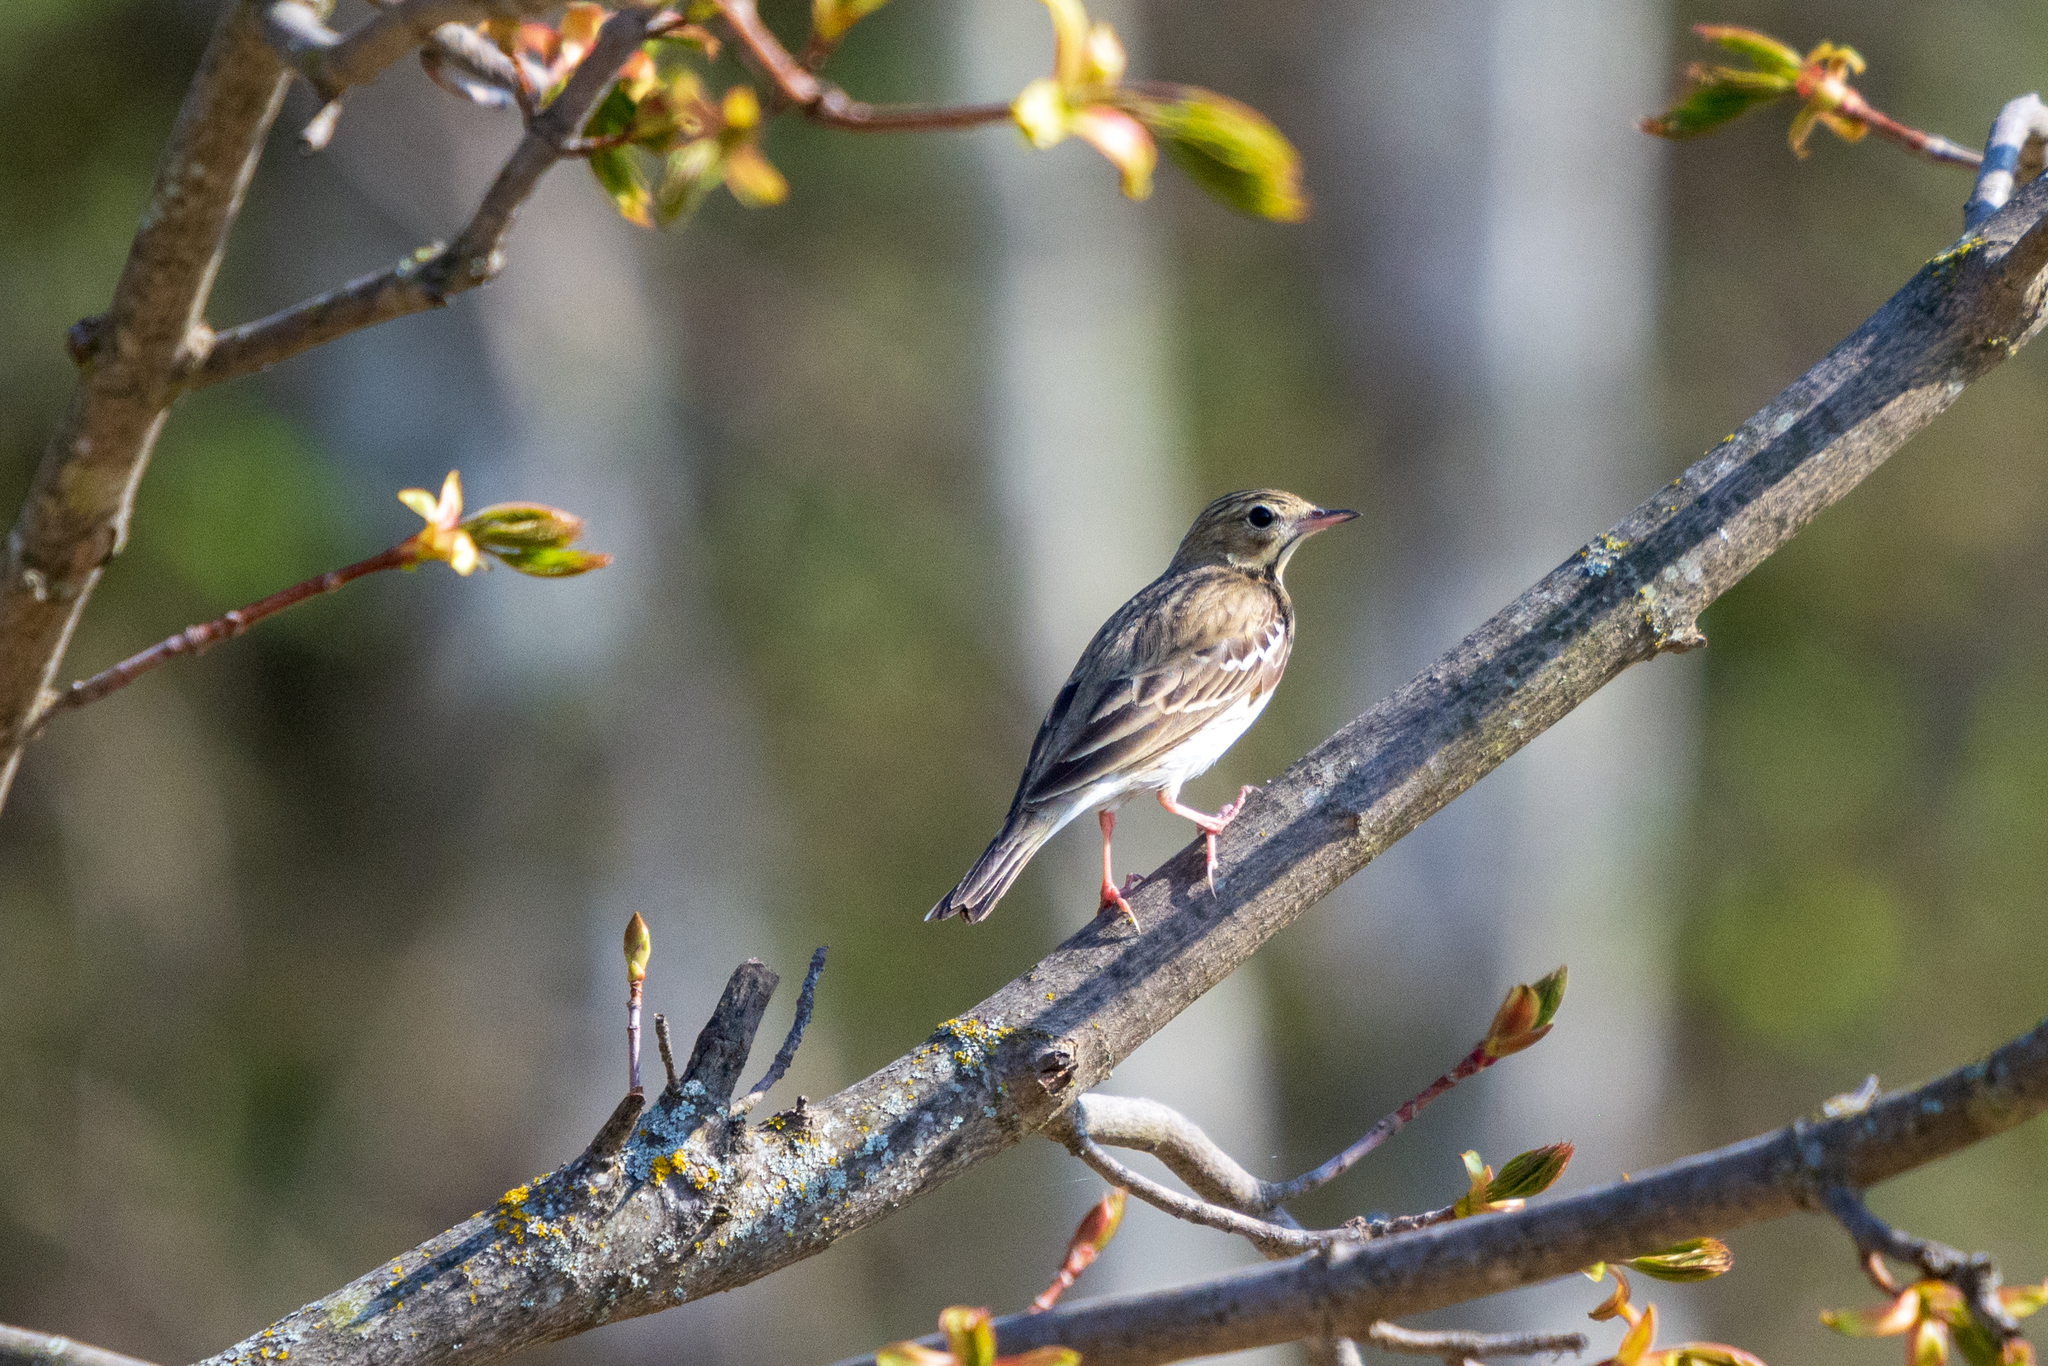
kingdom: Animalia
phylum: Chordata
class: Aves
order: Passeriformes
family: Motacillidae
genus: Anthus
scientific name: Anthus trivialis
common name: Tree pipit
